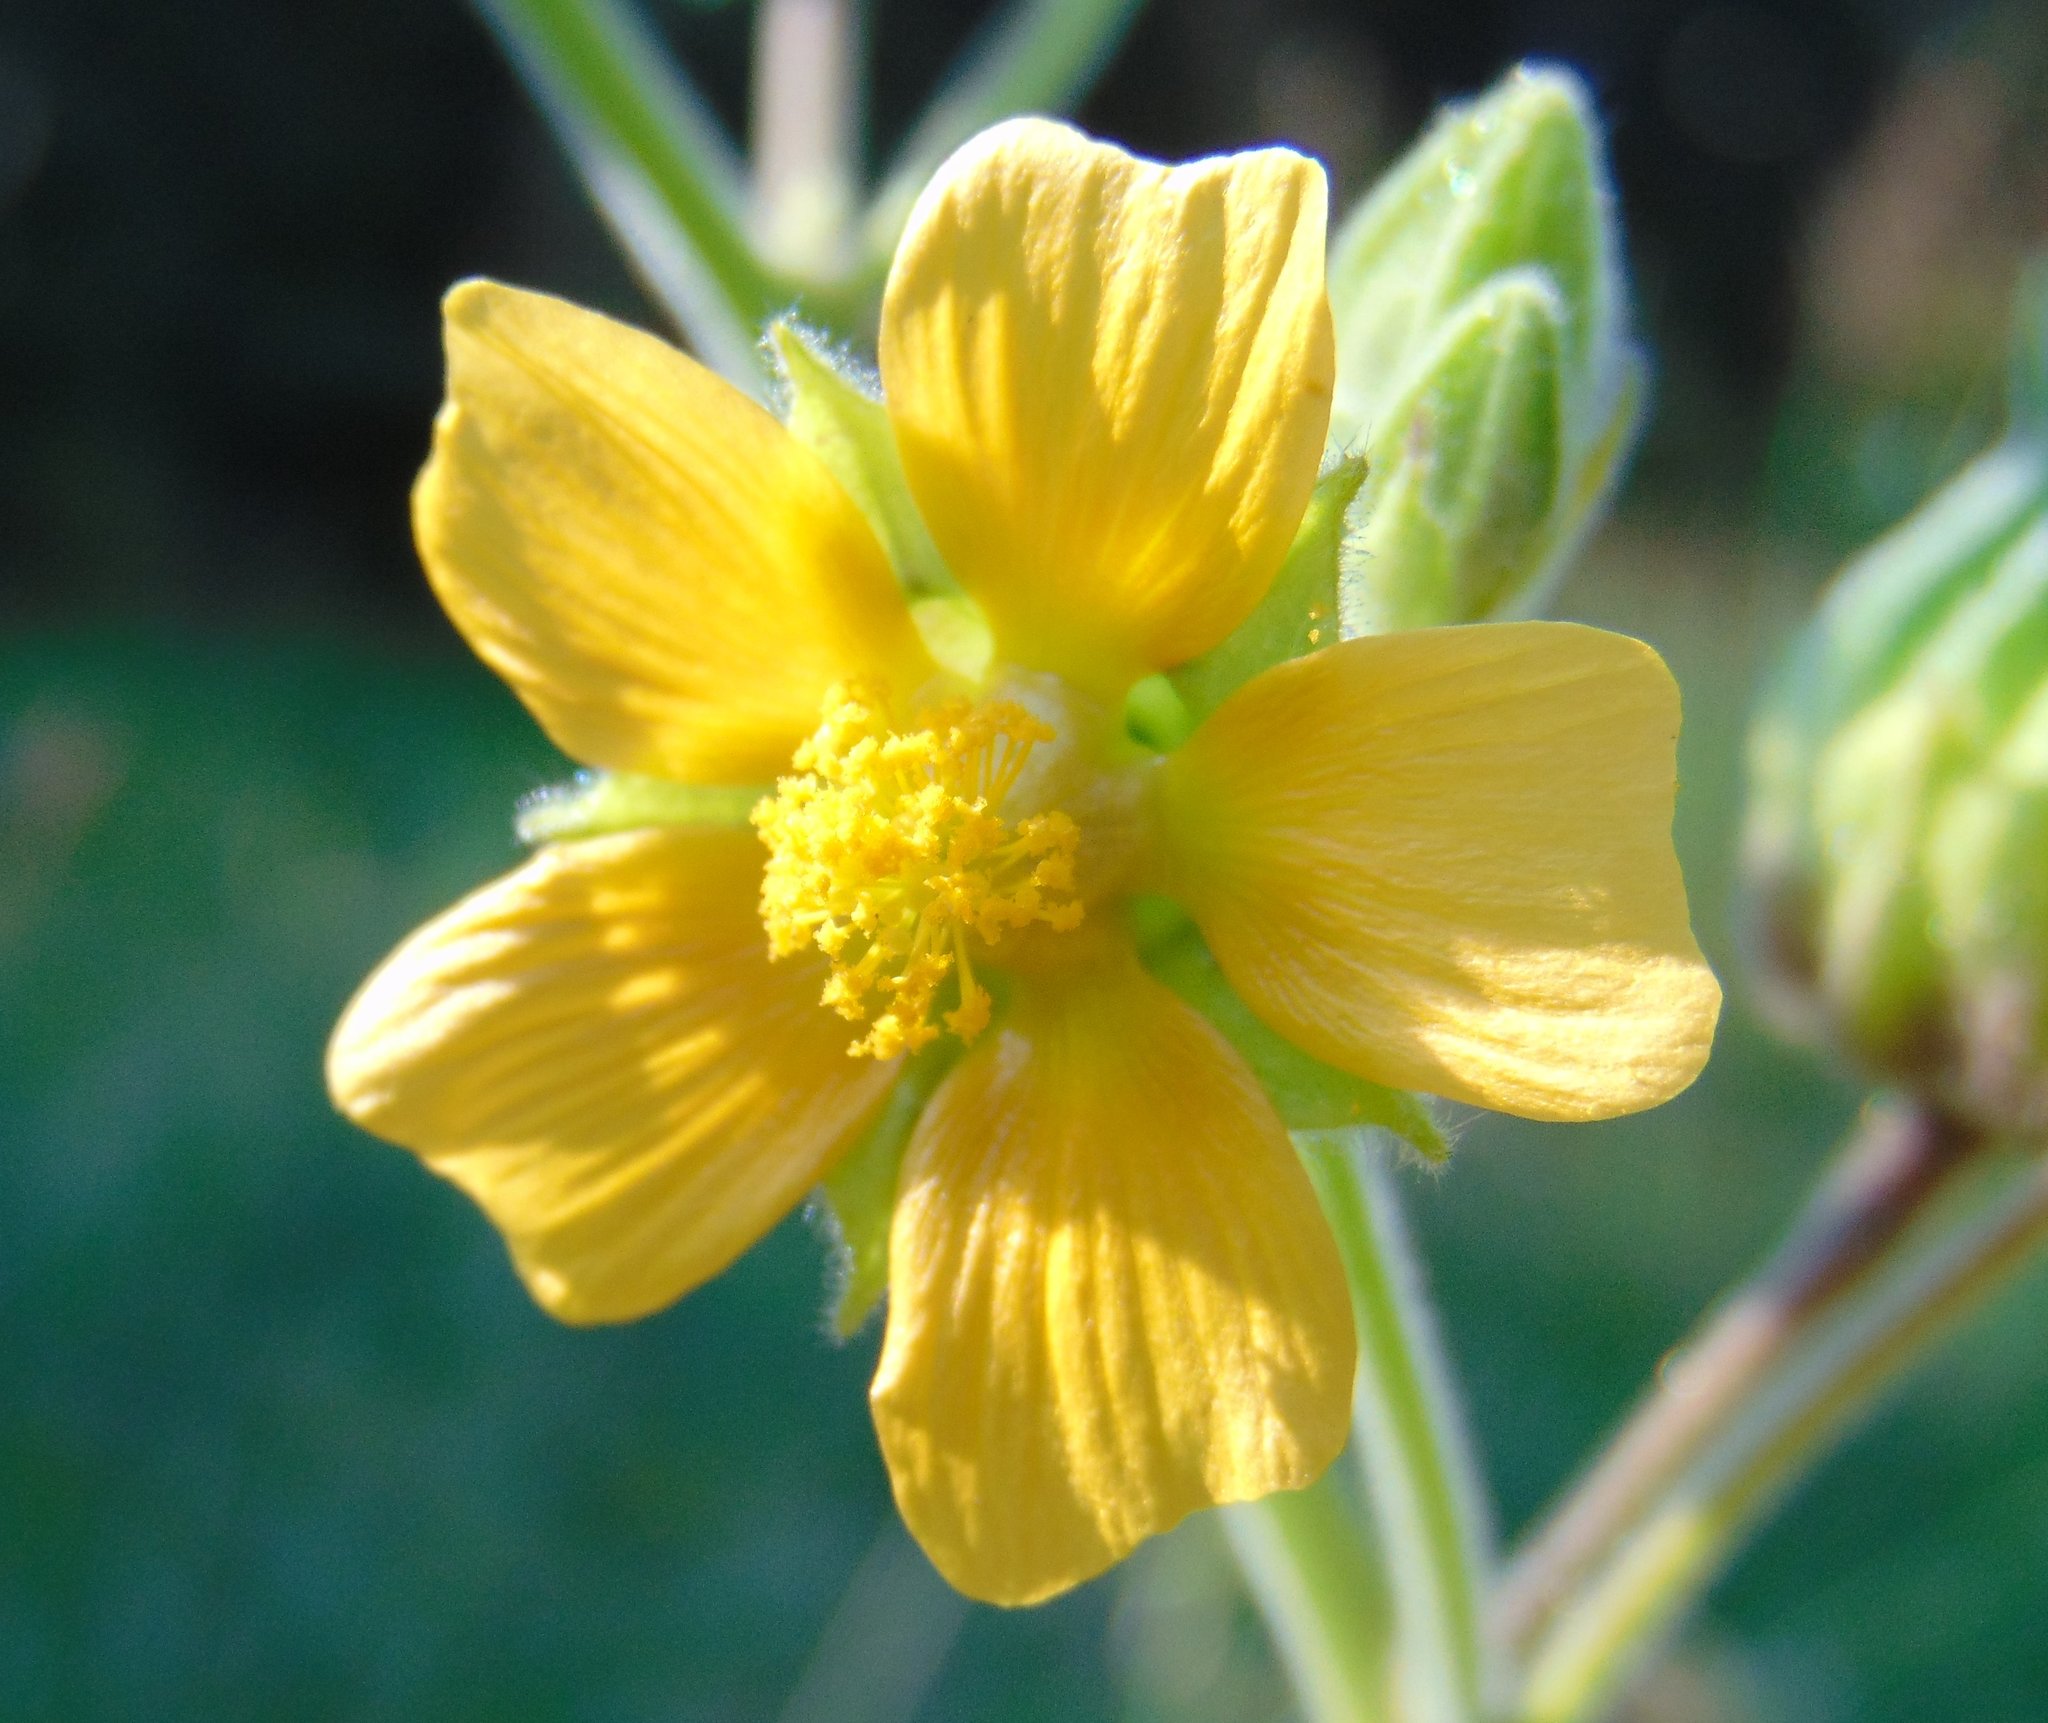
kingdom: Plantae
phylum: Tracheophyta
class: Magnoliopsida
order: Malvales
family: Malvaceae
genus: Abutilon
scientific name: Abutilon theophrasti
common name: Velvetleaf
